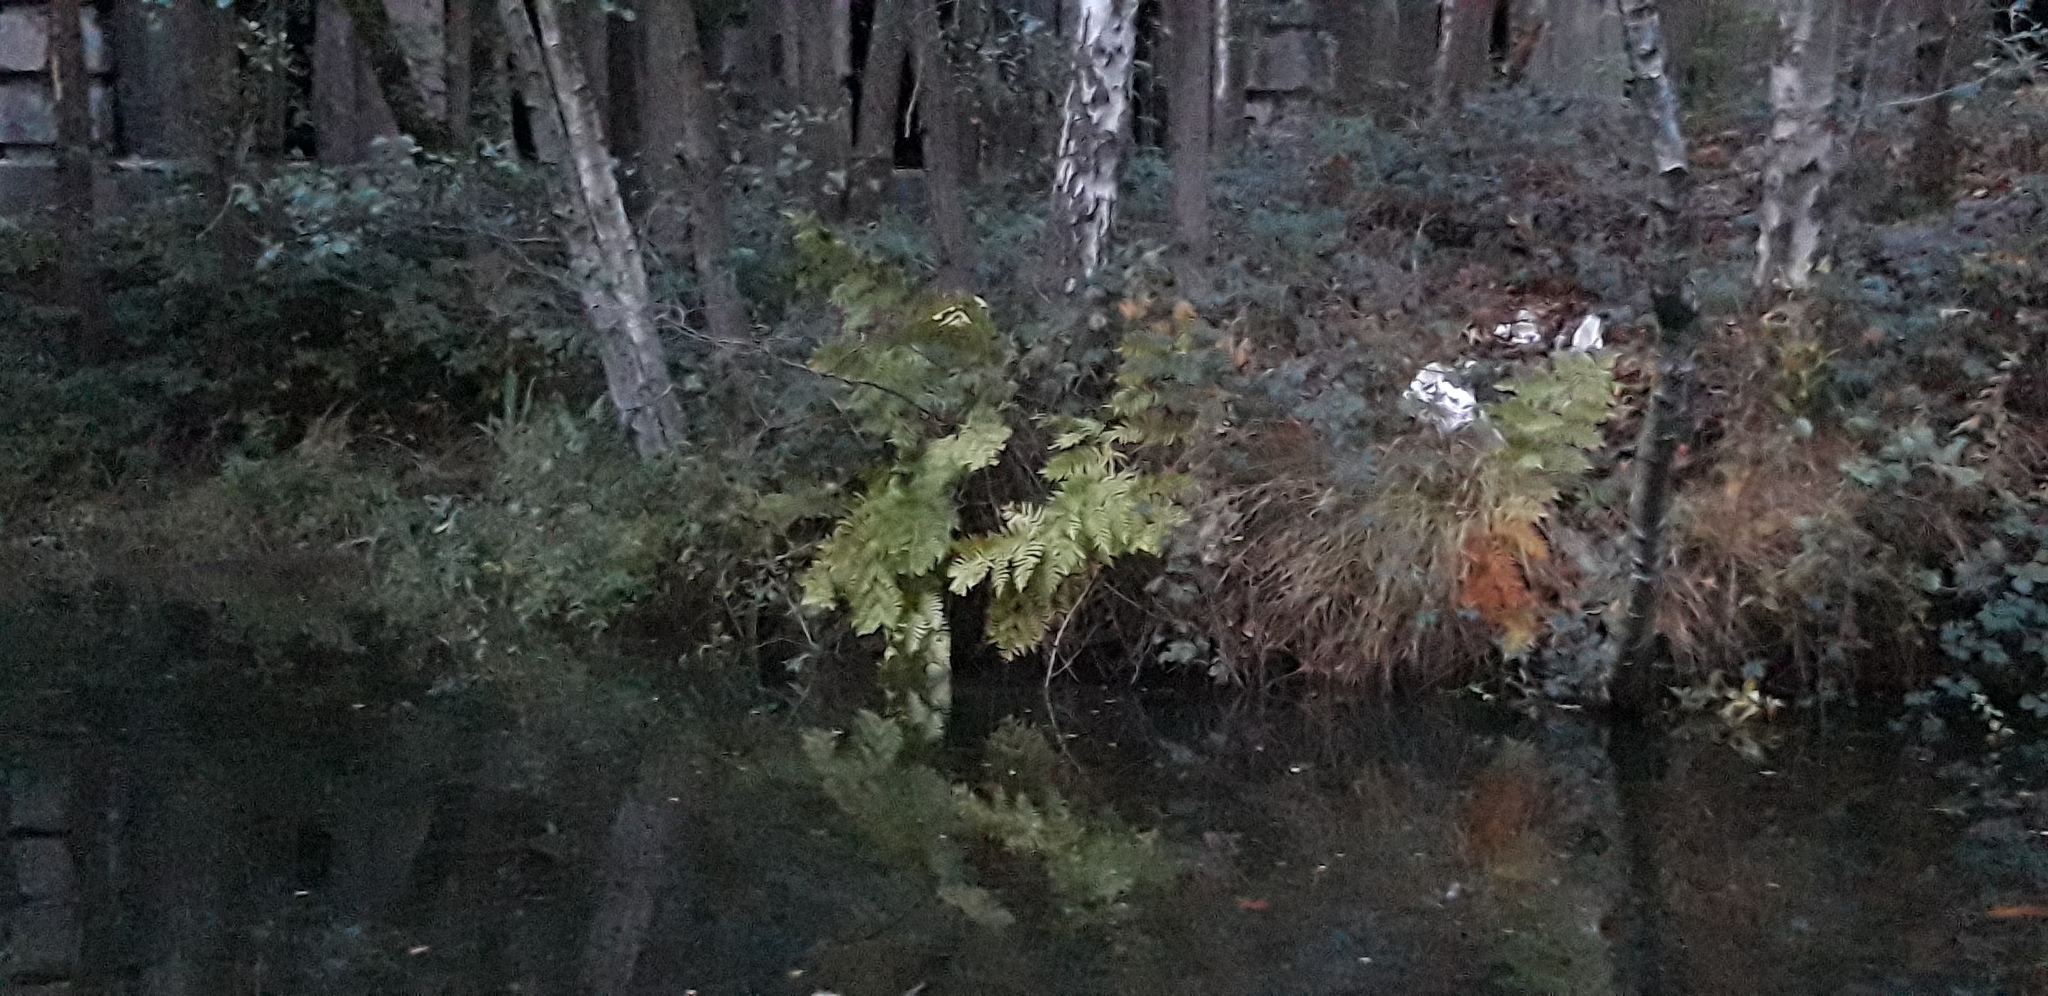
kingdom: Plantae
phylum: Tracheophyta
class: Polypodiopsida
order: Osmundales
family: Osmundaceae
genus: Osmunda
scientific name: Osmunda regalis
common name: Royal fern
